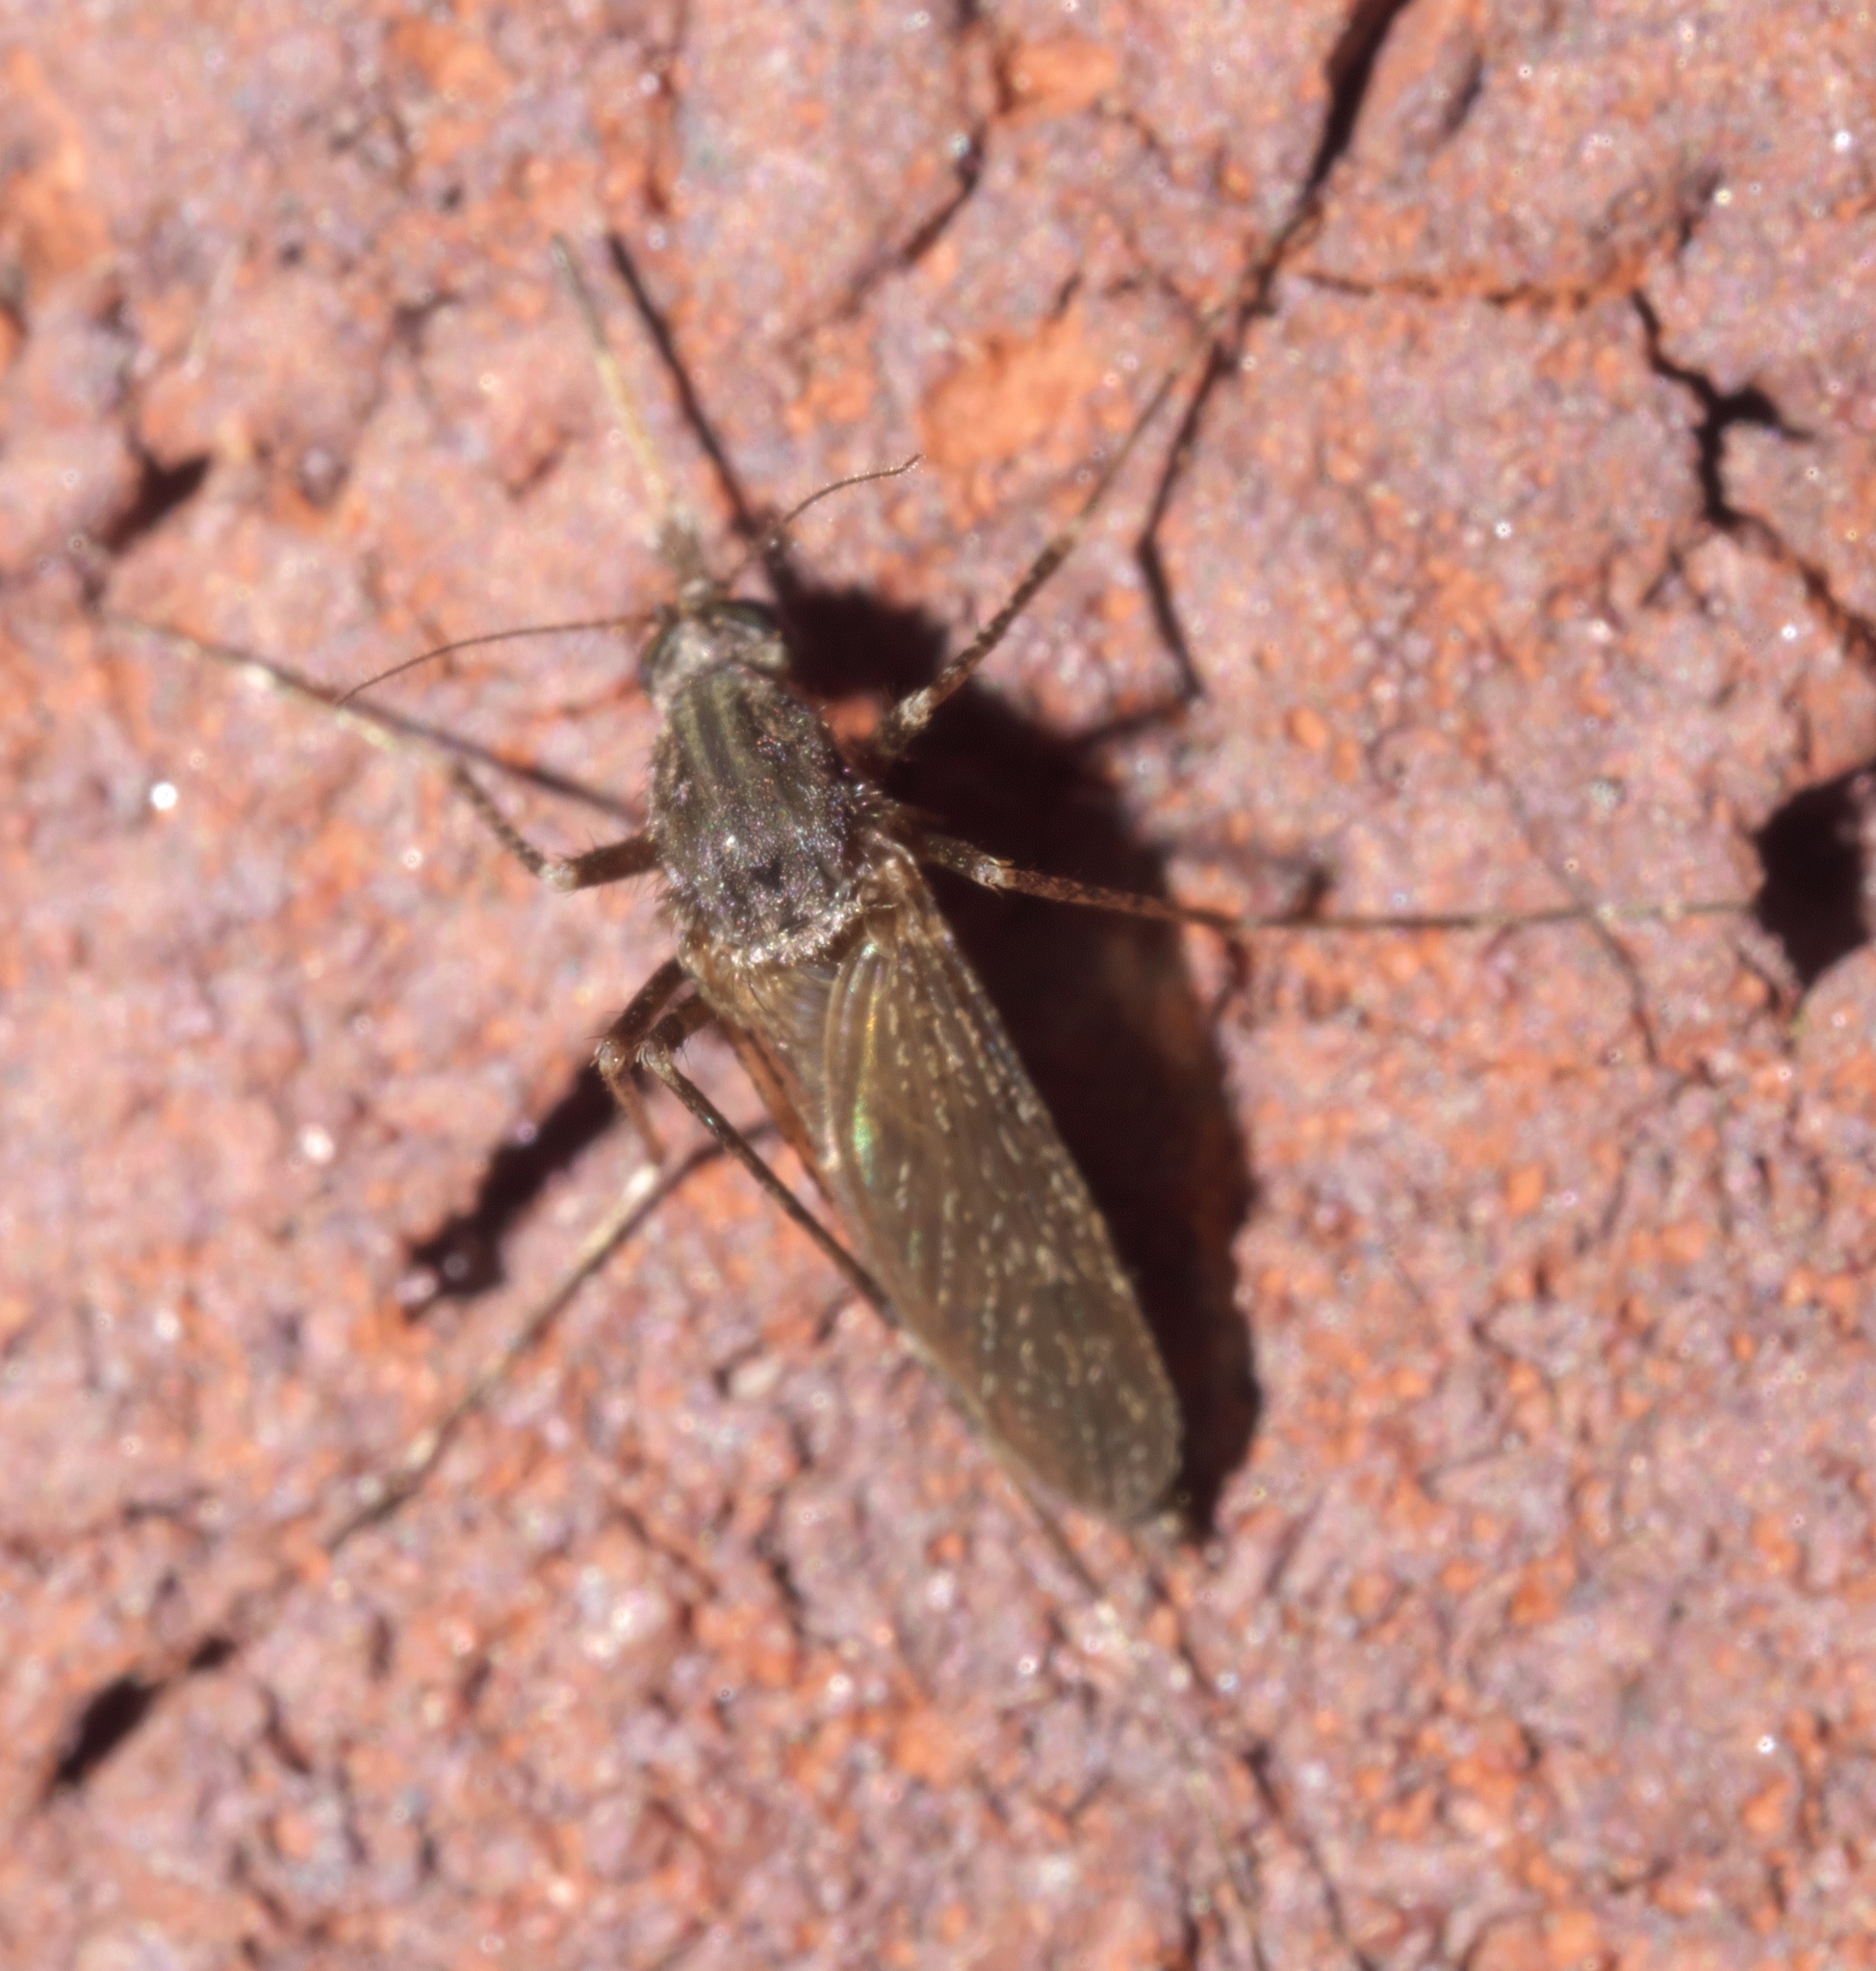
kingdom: Animalia
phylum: Arthropoda
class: Insecta
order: Diptera
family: Culicidae
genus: Psorophora
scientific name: Psorophora columbiae
